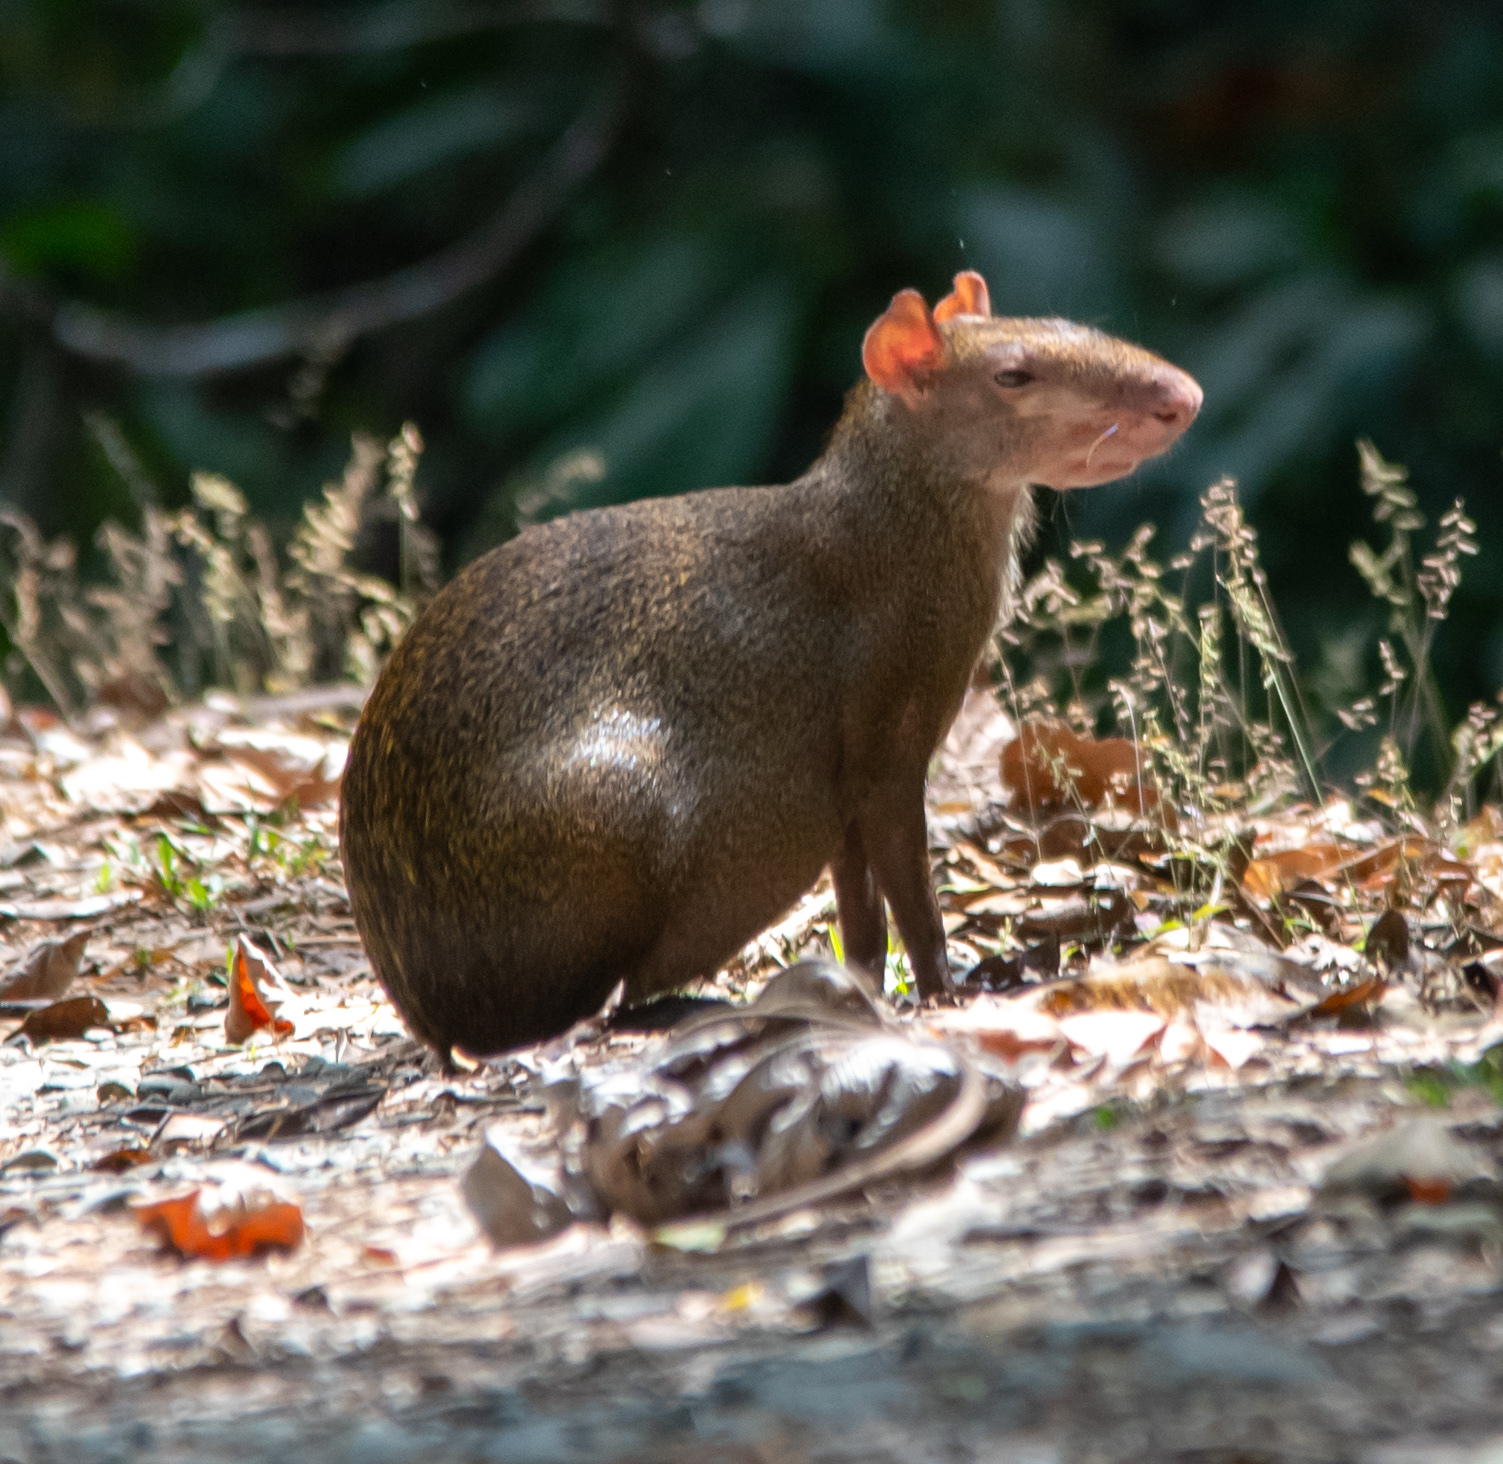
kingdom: Animalia
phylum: Chordata
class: Mammalia
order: Rodentia
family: Dasyproctidae
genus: Dasyprocta
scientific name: Dasyprocta punctata
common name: Central american agouti
